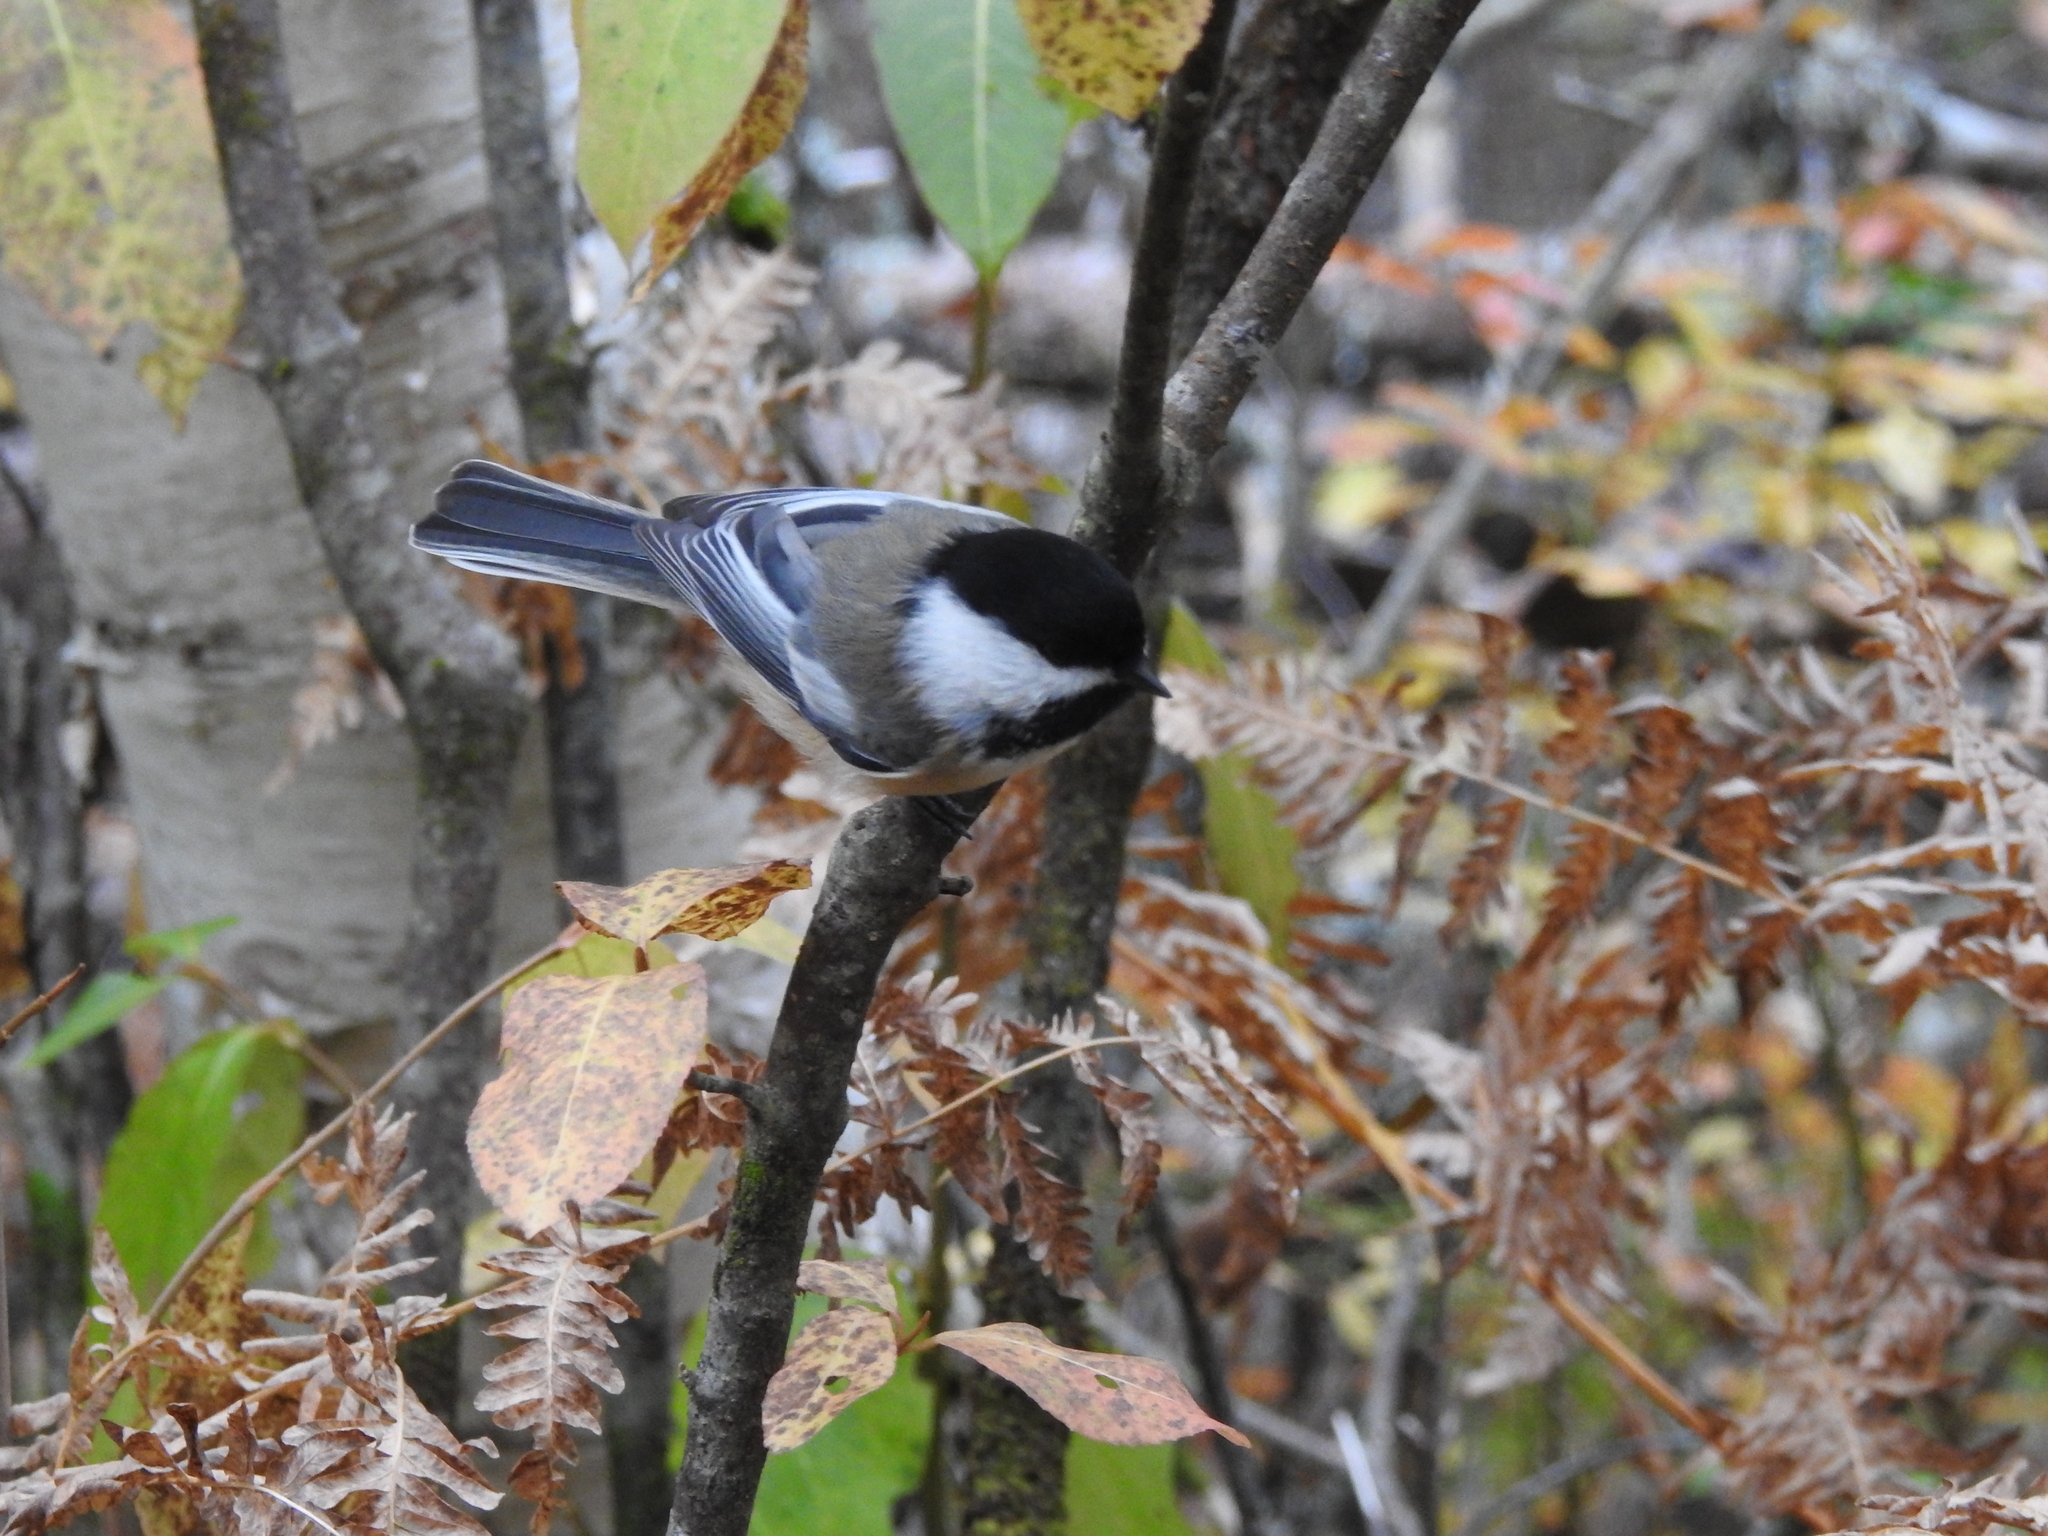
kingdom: Animalia
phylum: Chordata
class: Aves
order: Passeriformes
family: Paridae
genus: Poecile
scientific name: Poecile atricapillus
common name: Black-capped chickadee
